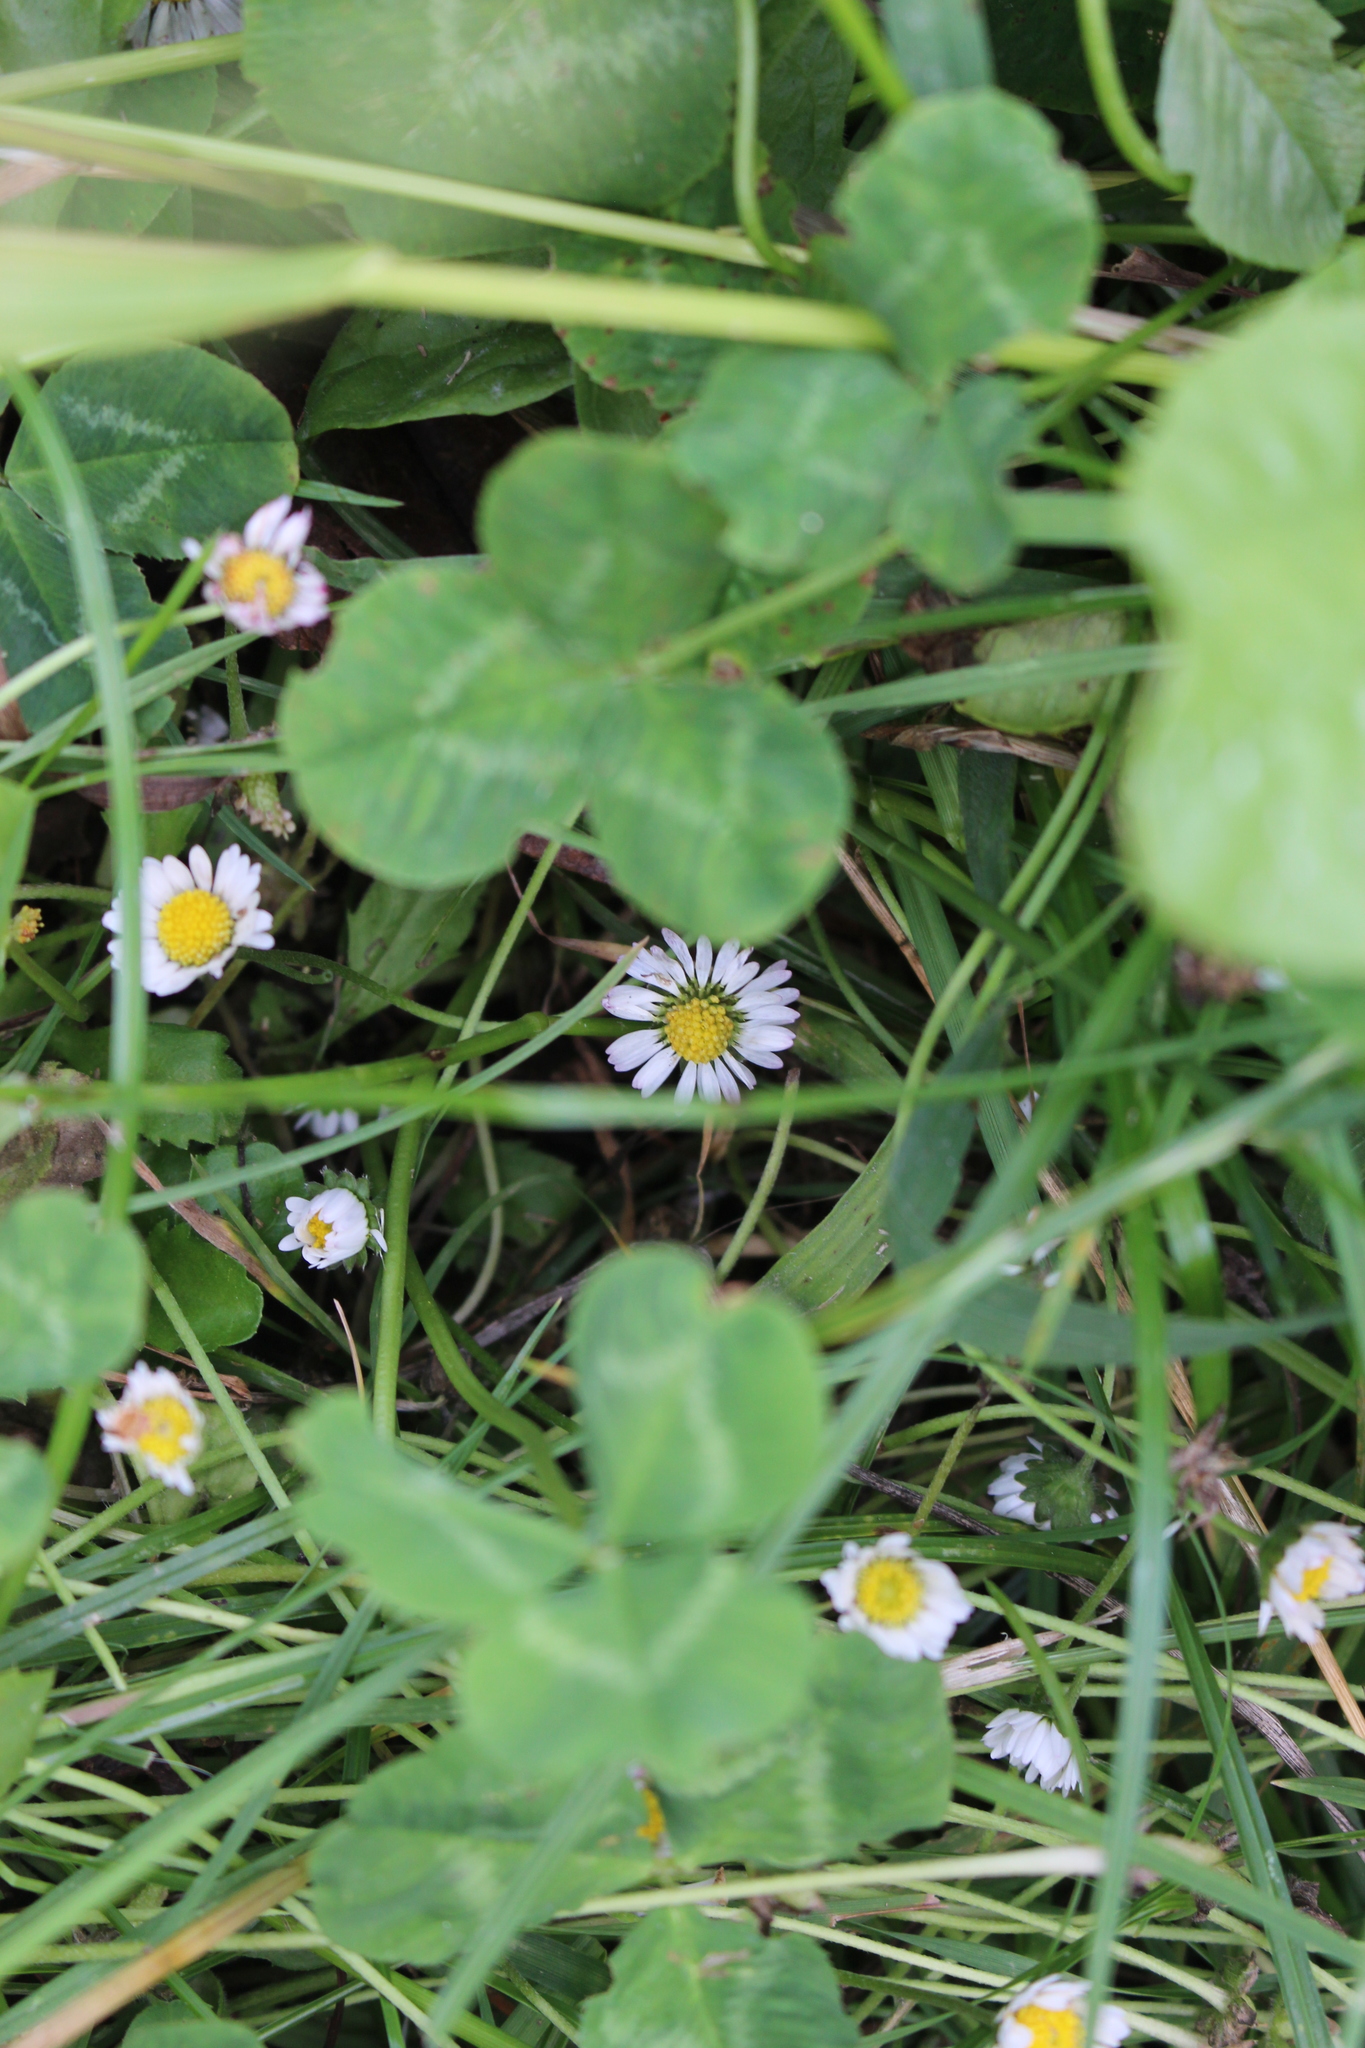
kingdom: Plantae
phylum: Tracheophyta
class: Magnoliopsida
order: Asterales
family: Asteraceae
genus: Bellis
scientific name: Bellis perennis
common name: Lawndaisy
